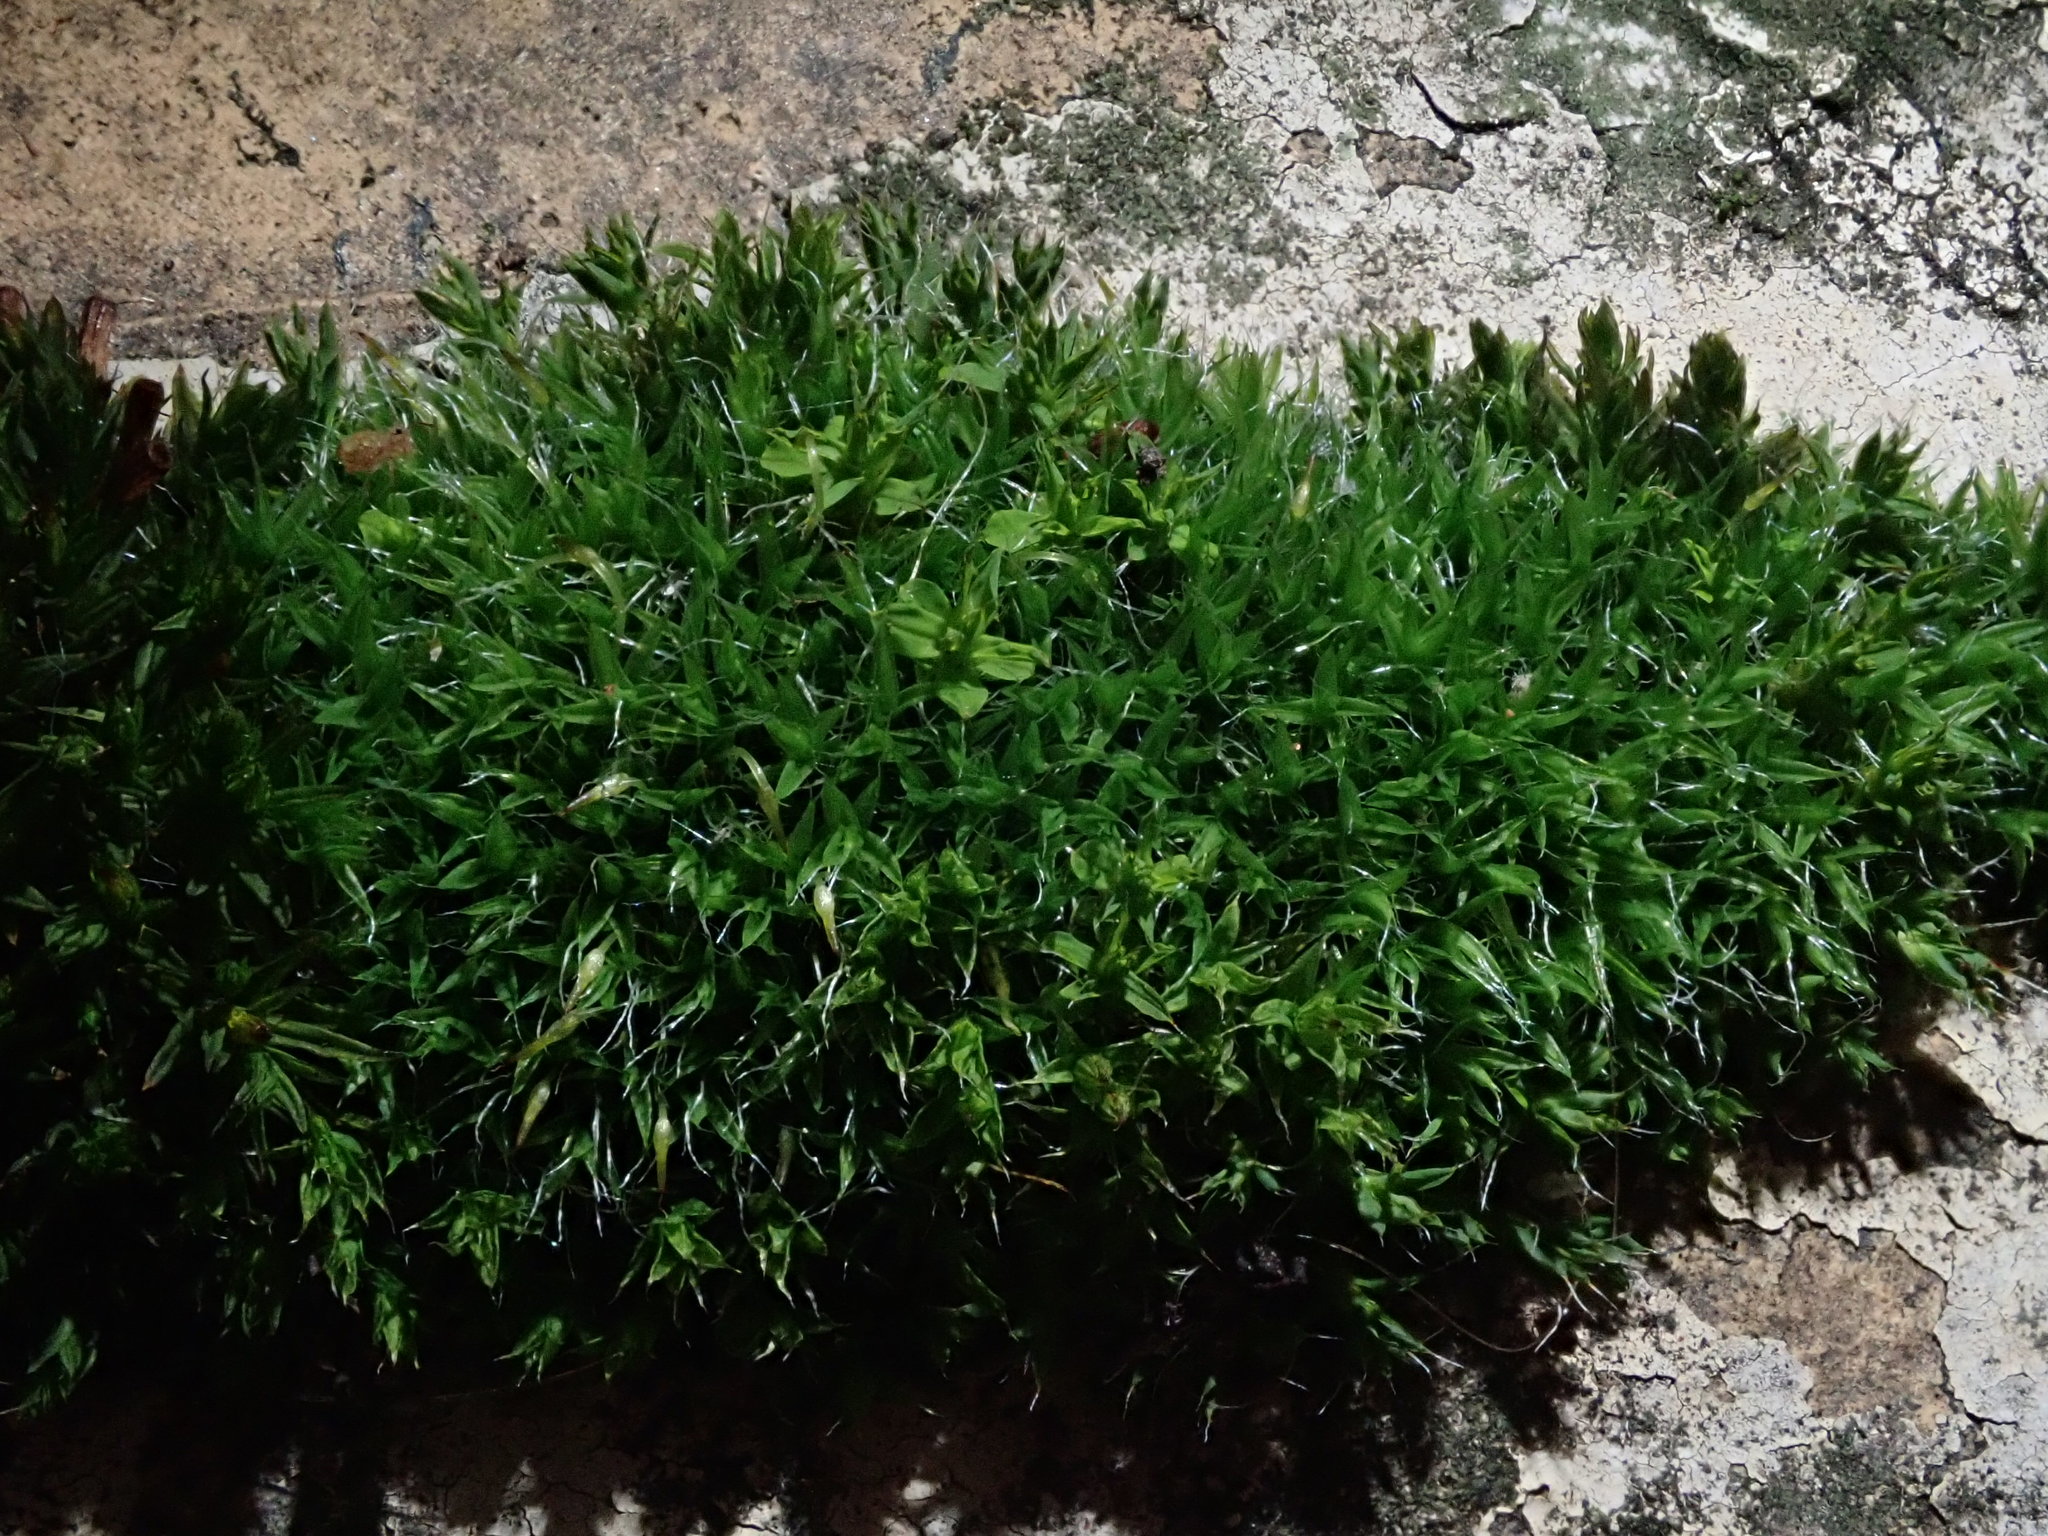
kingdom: Plantae
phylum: Bryophyta
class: Bryopsida
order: Grimmiales
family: Grimmiaceae
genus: Grimmia
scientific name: Grimmia pulvinata
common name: Grey-cushioned grimmia
